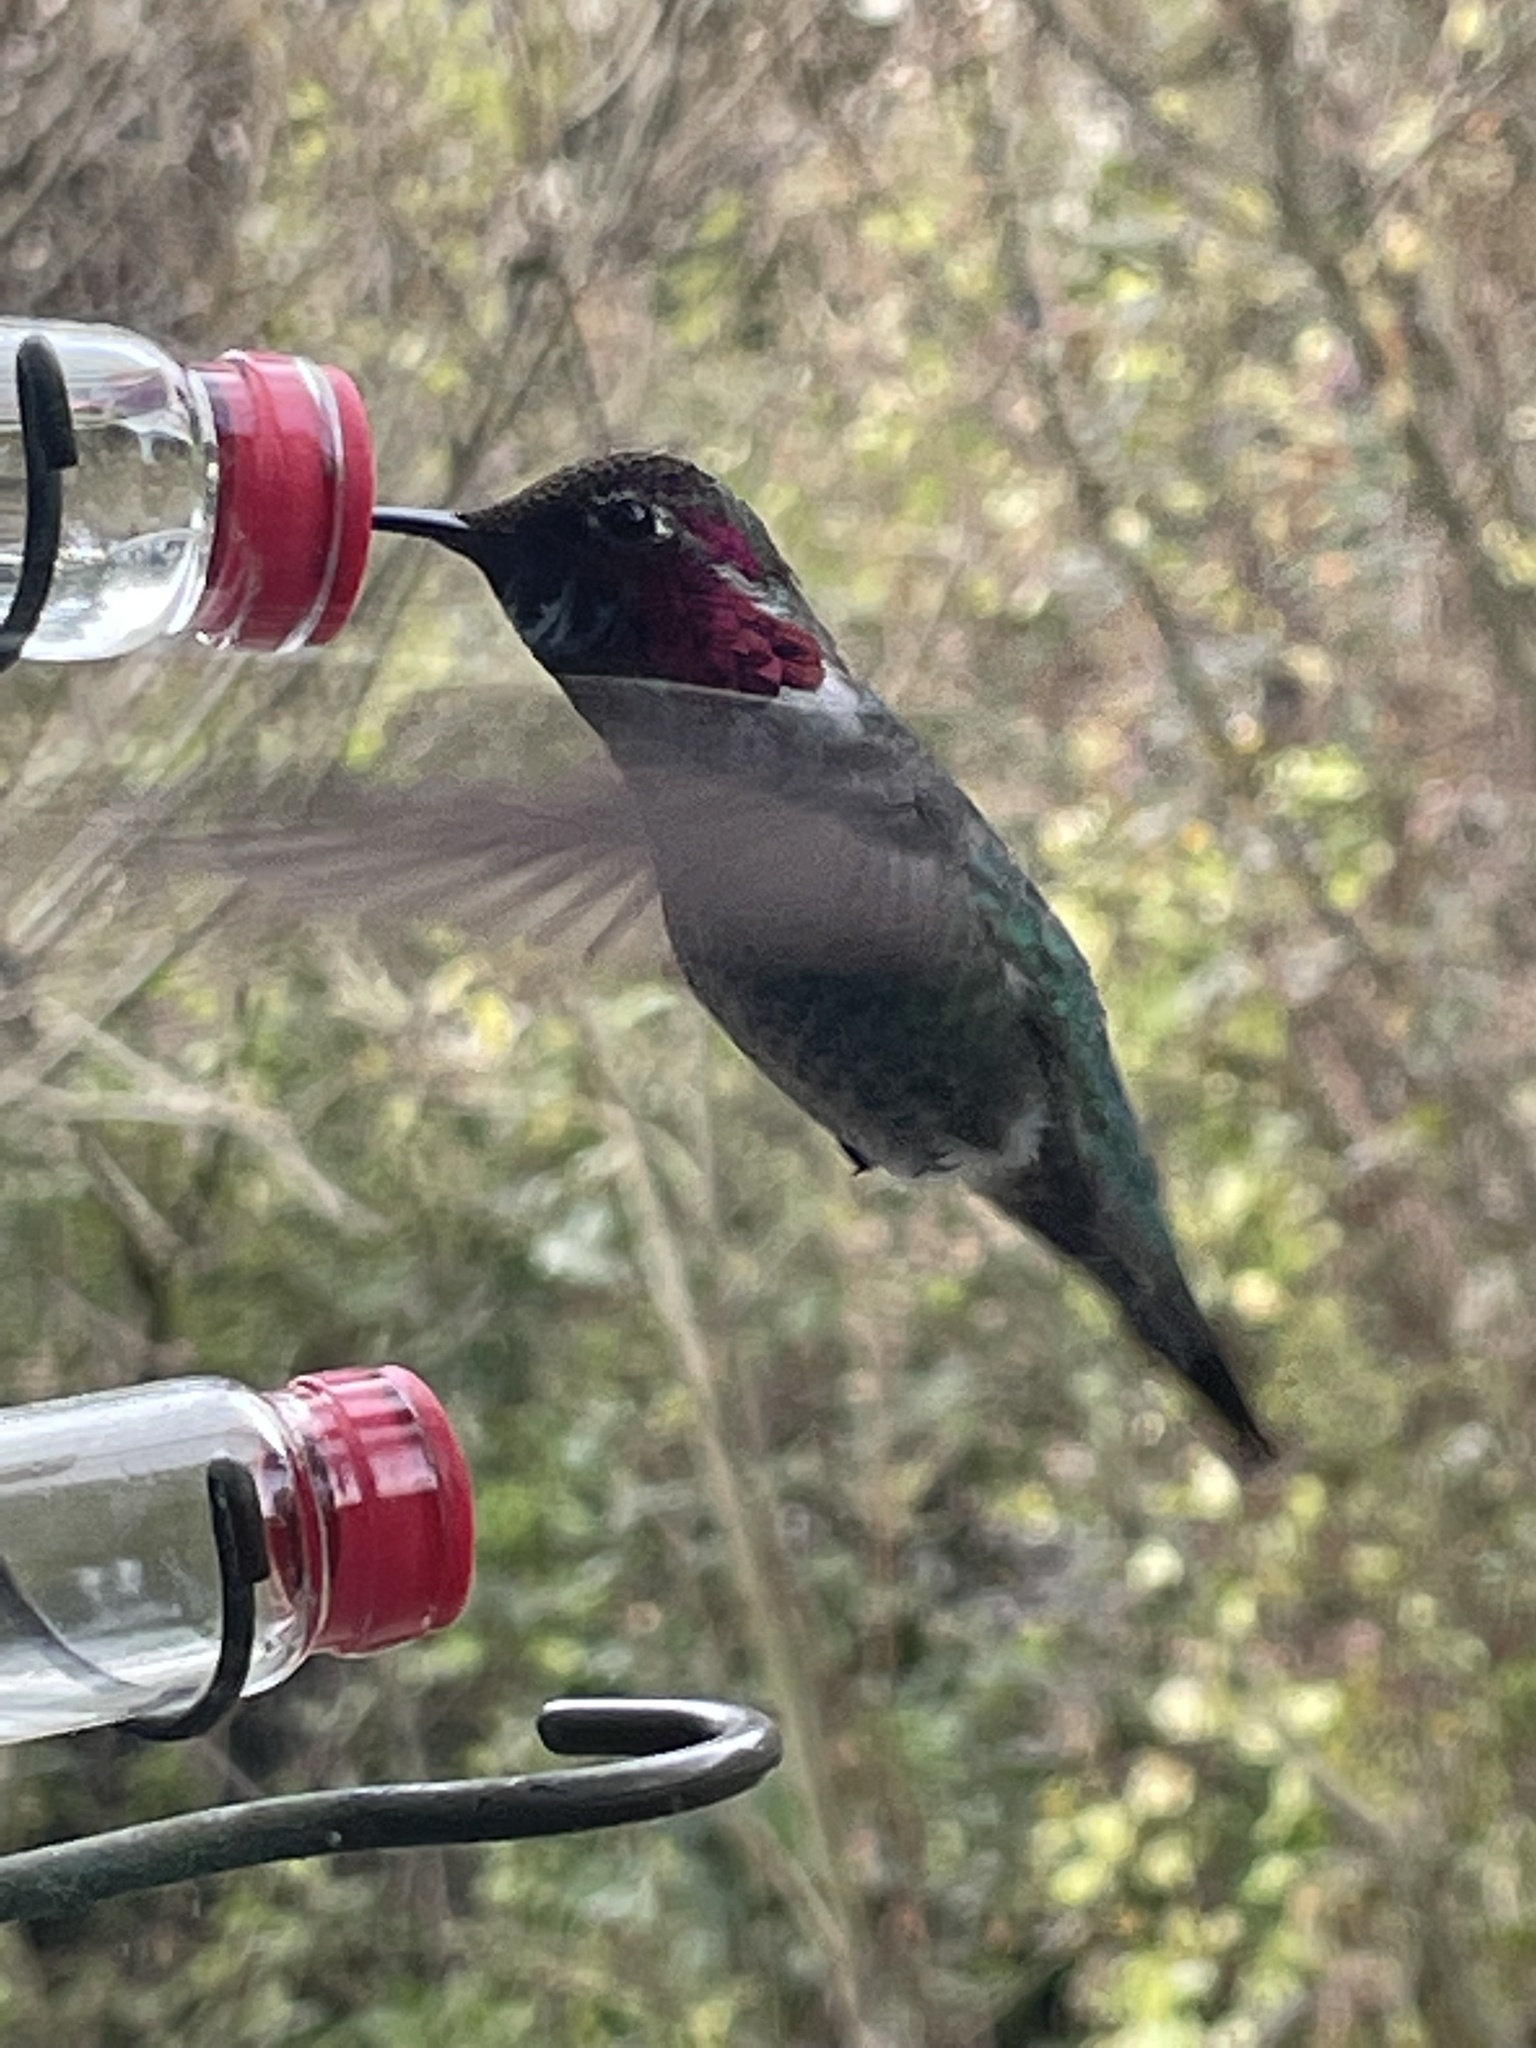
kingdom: Animalia
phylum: Chordata
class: Aves
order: Apodiformes
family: Trochilidae
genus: Calypte
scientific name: Calypte anna
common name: Anna's hummingbird
